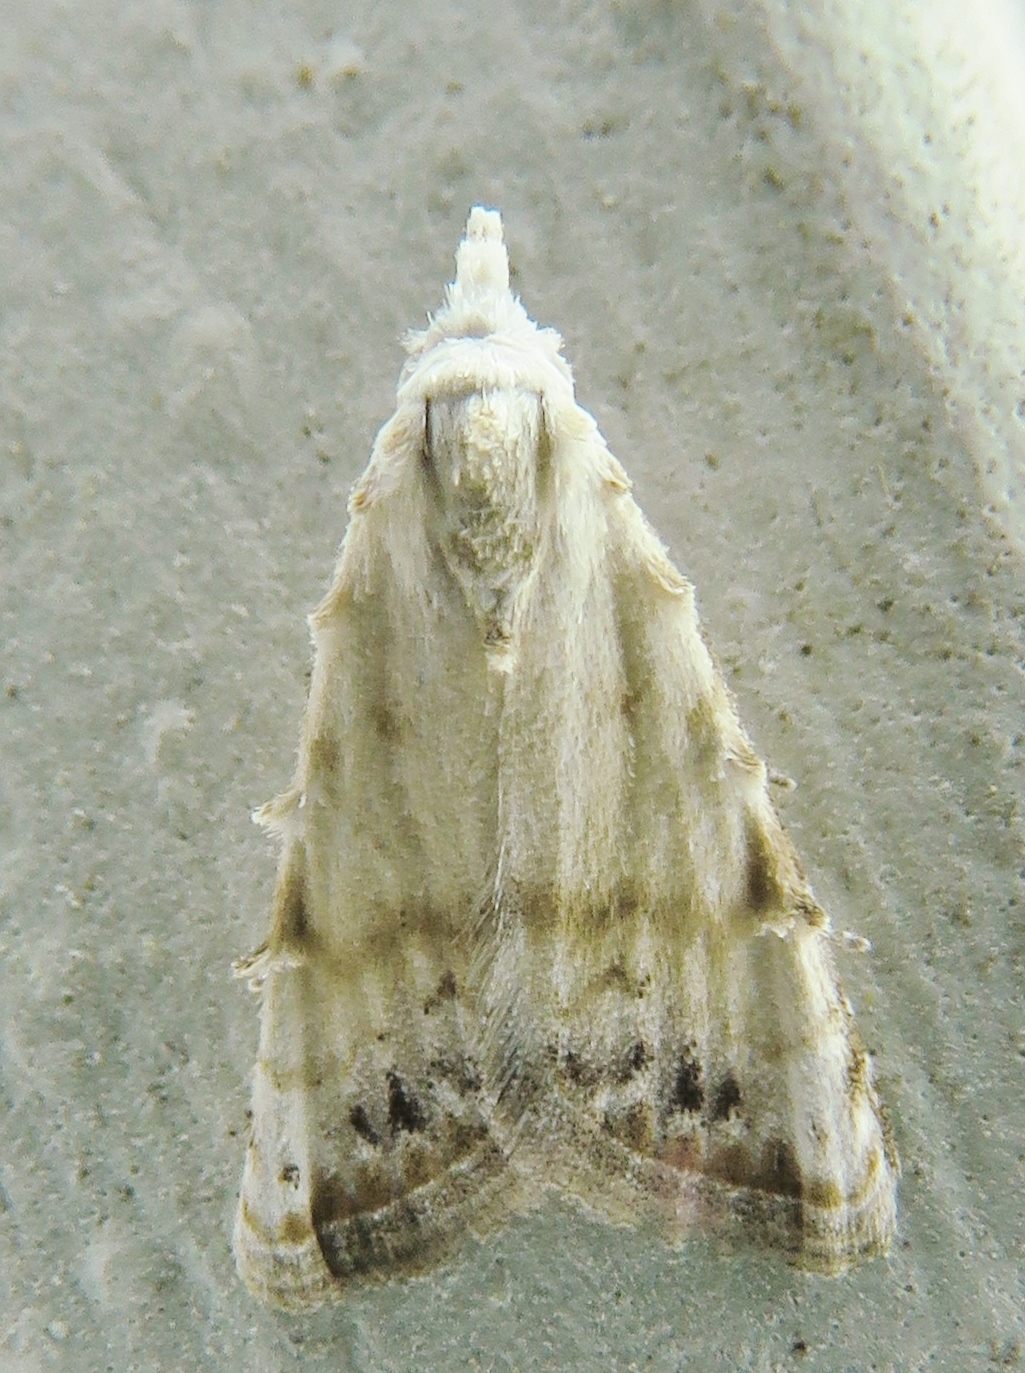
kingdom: Animalia
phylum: Arthropoda
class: Insecta
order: Lepidoptera
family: Nolidae
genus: Nola
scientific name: Nola cereella
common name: Sorghum webworm moth
